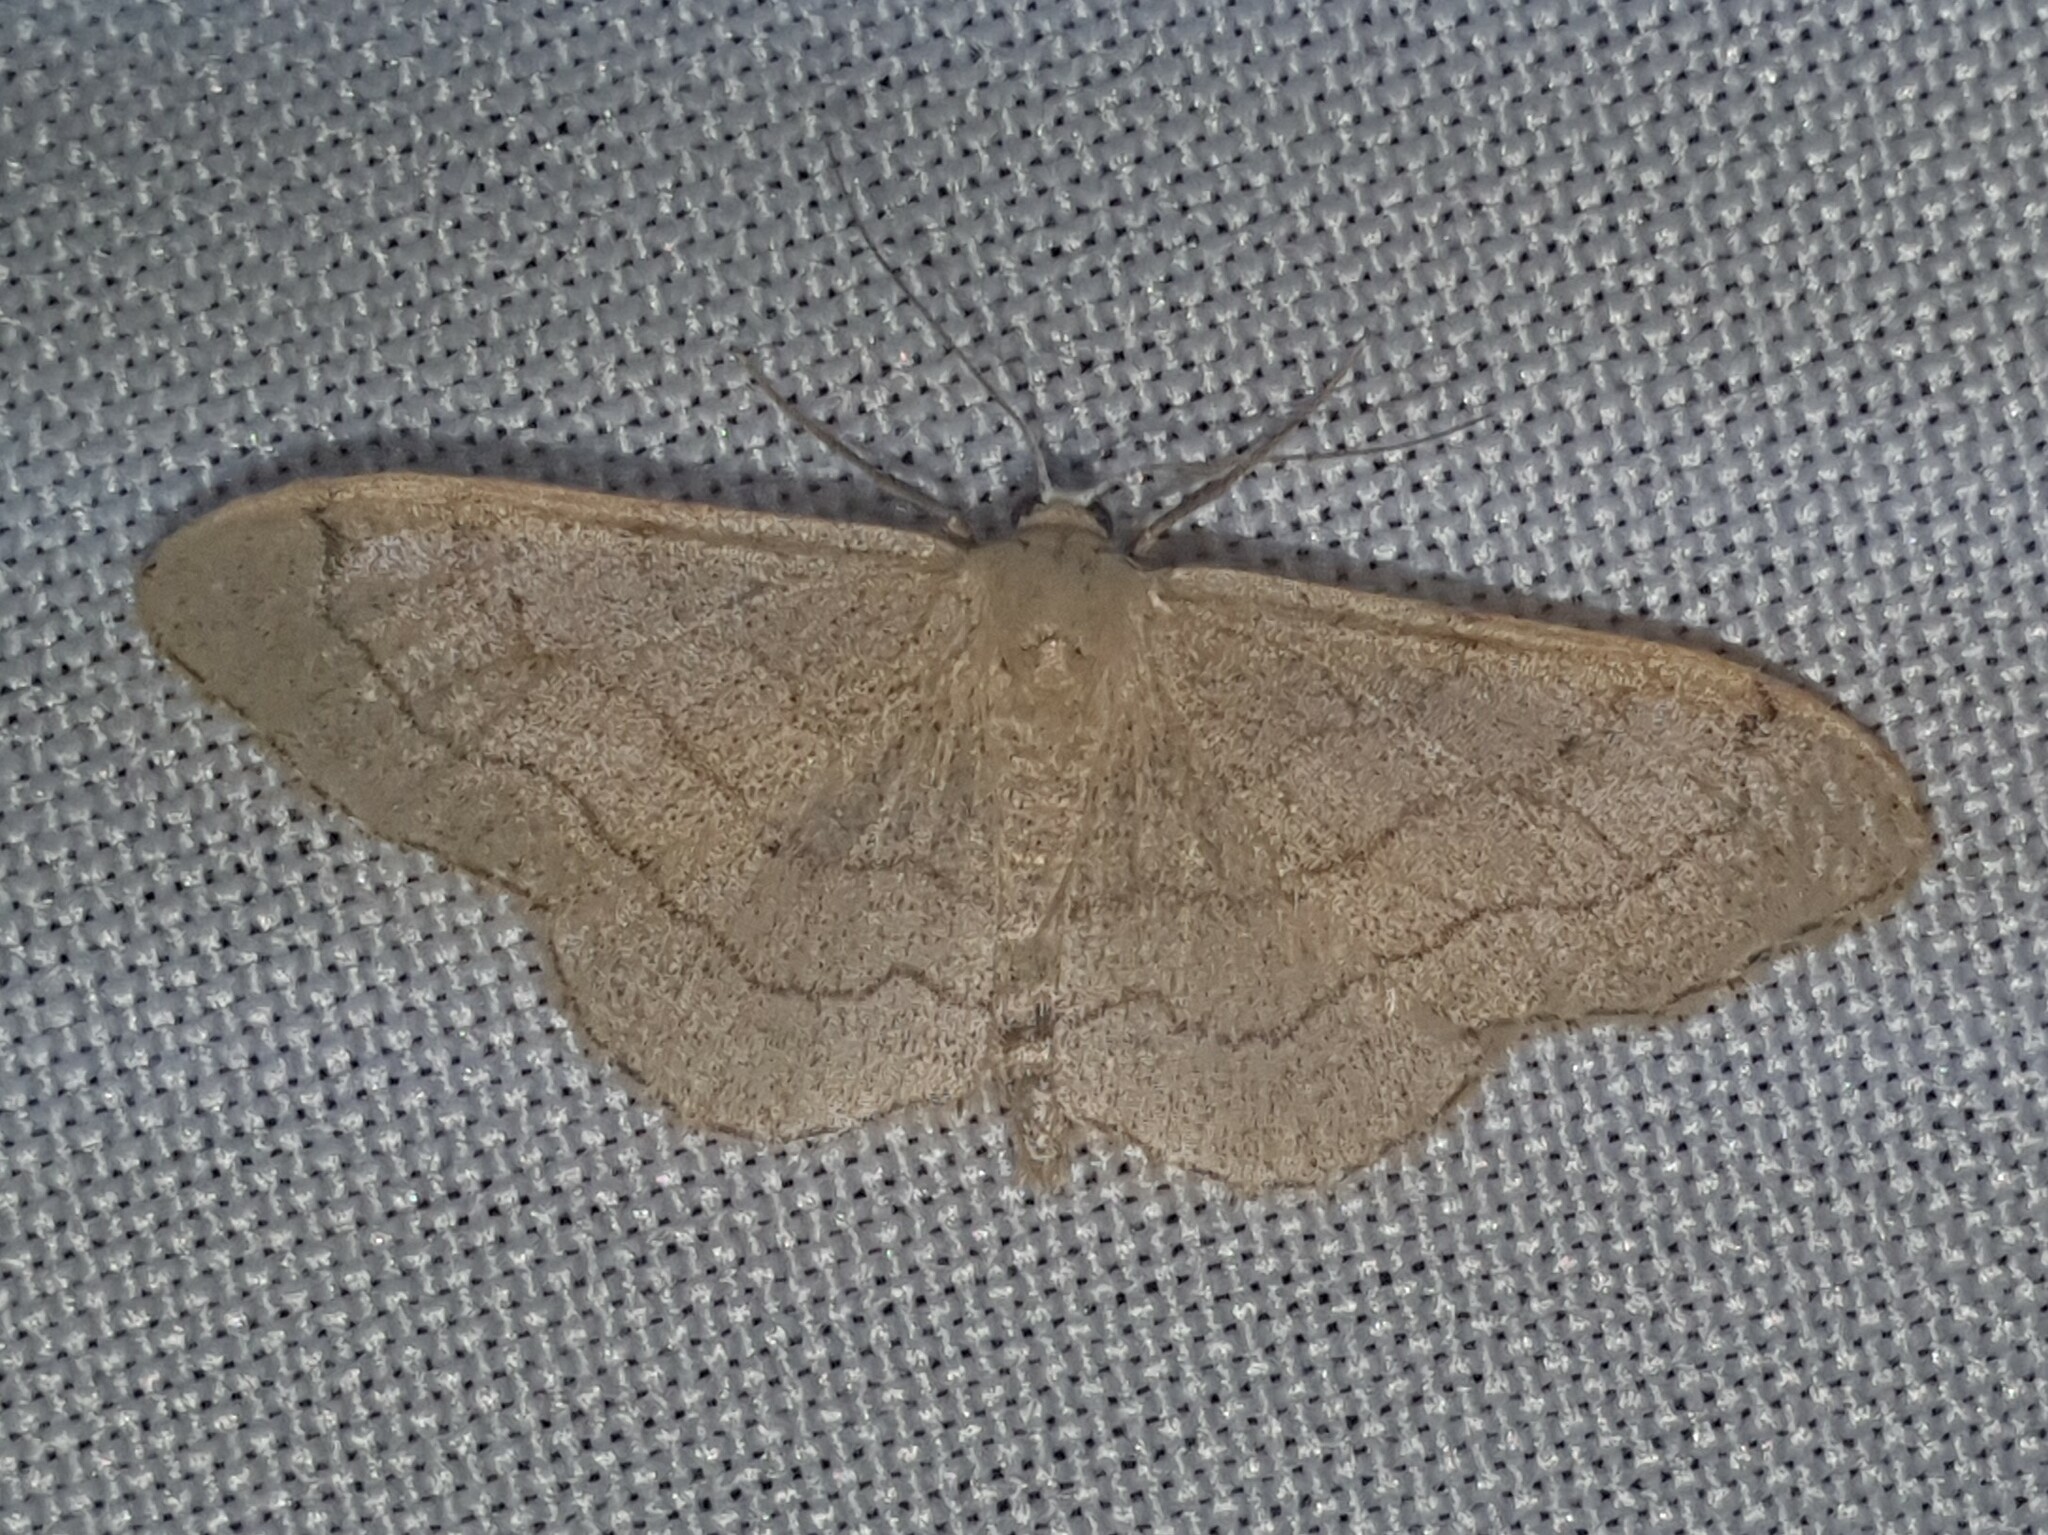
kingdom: Animalia
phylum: Arthropoda
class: Insecta
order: Lepidoptera
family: Geometridae
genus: Idaea
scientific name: Idaea aversata
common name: Riband wave
